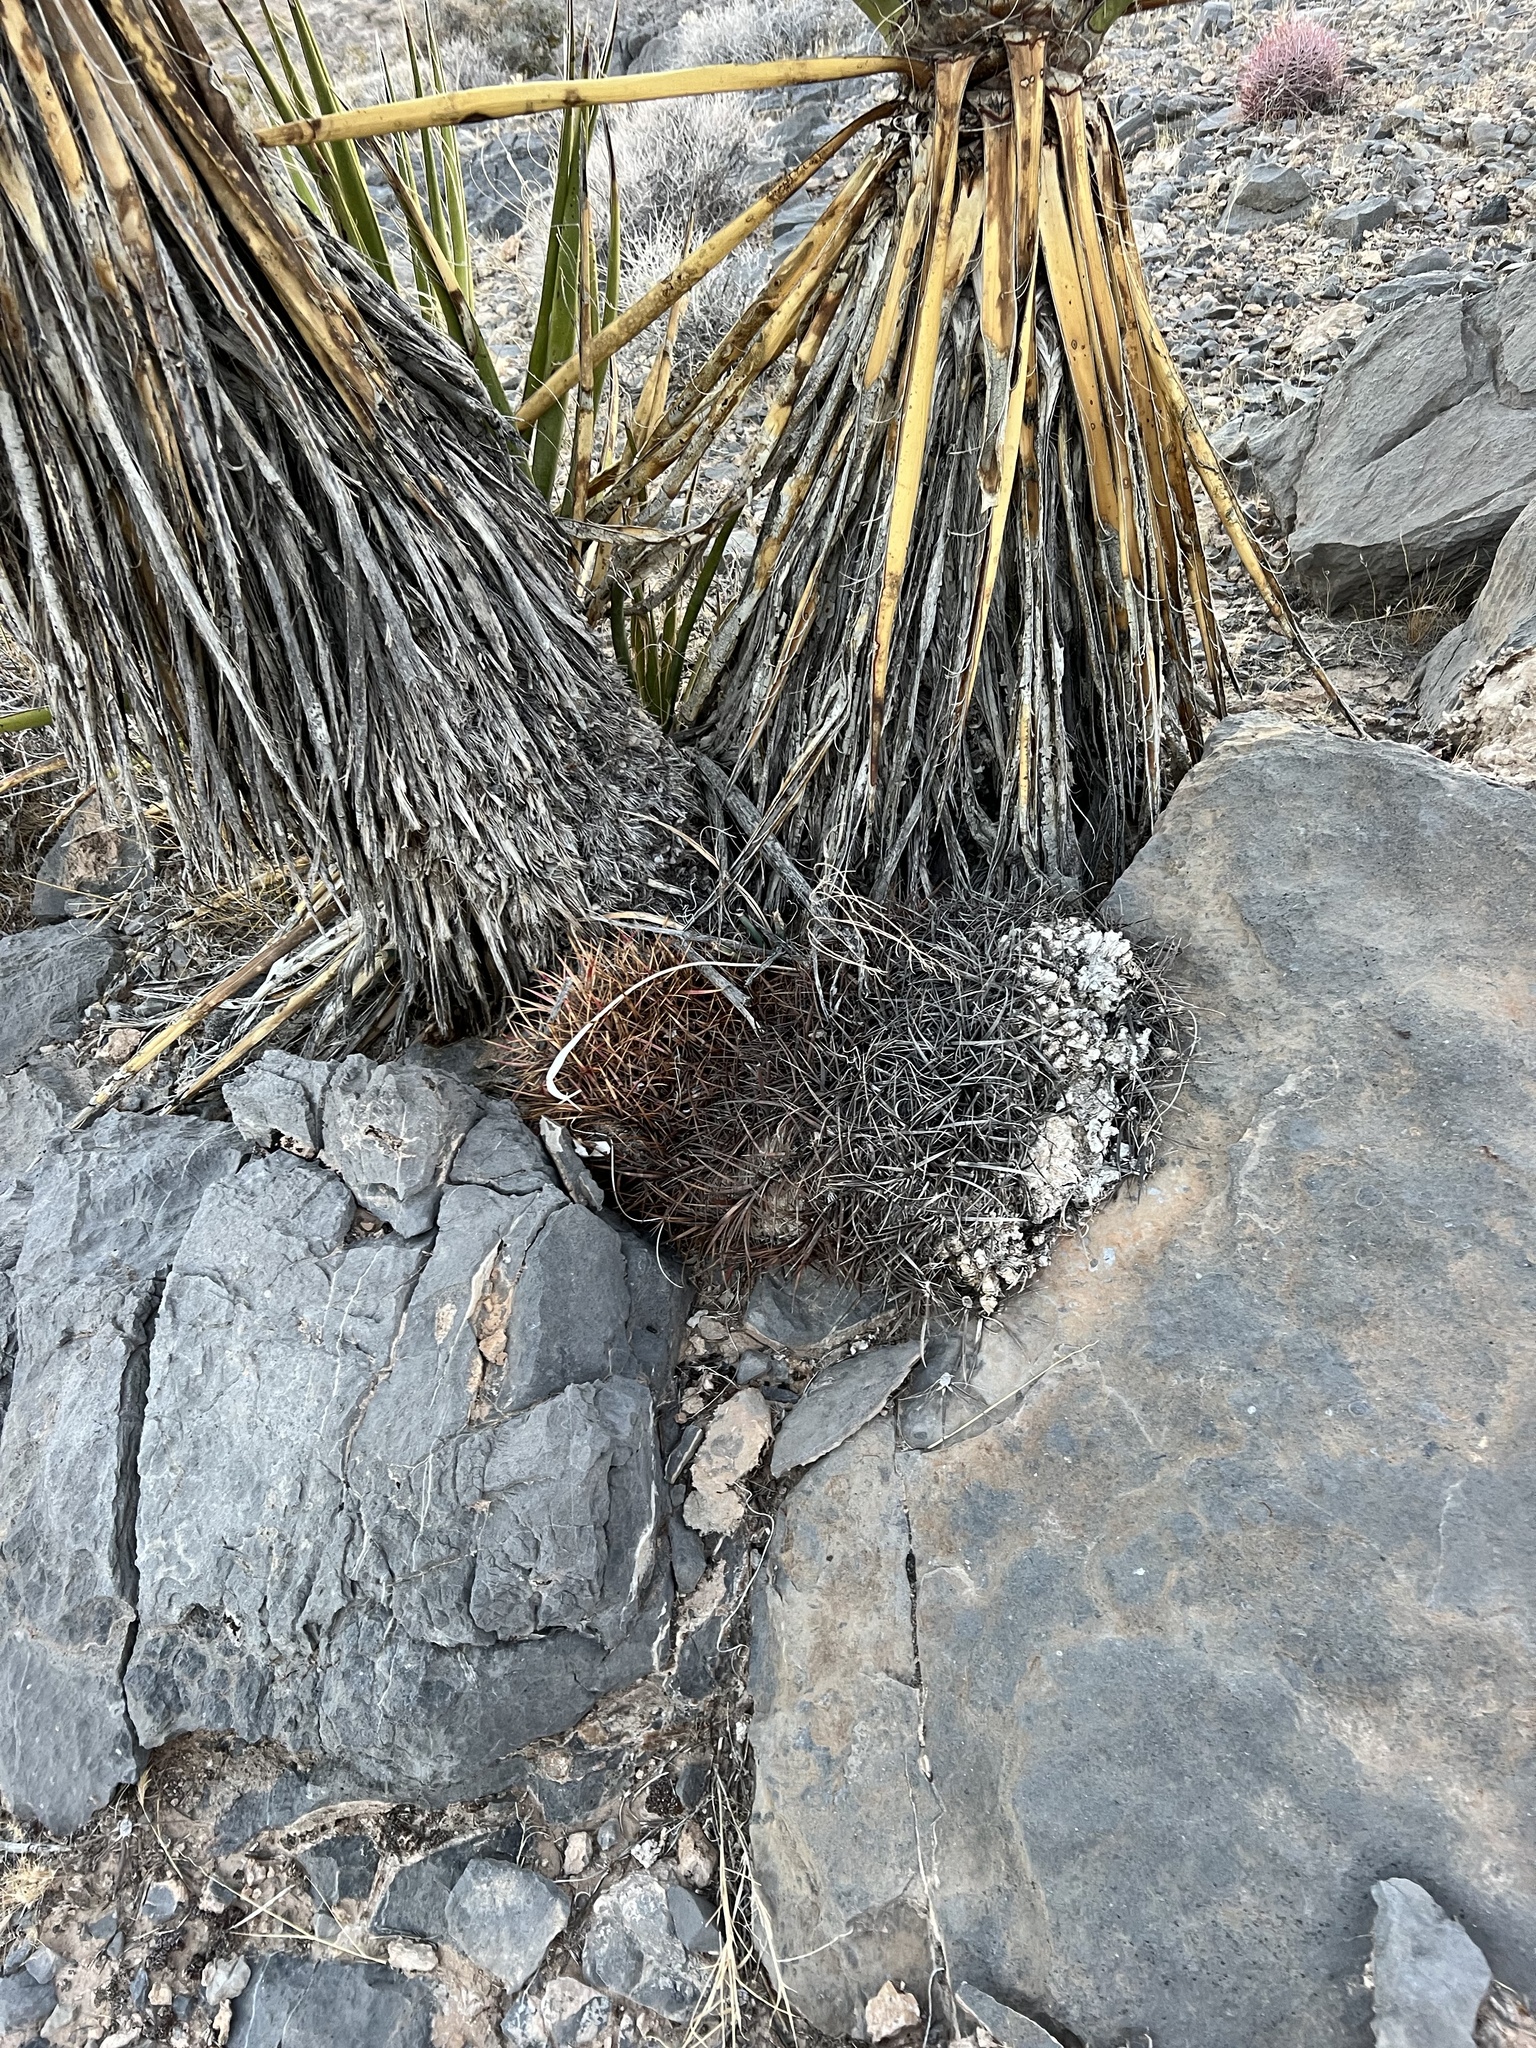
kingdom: Plantae
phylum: Tracheophyta
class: Magnoliopsida
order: Caryophyllales
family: Cactaceae
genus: Ferocactus
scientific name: Ferocactus cylindraceus
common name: California barrel cactus
